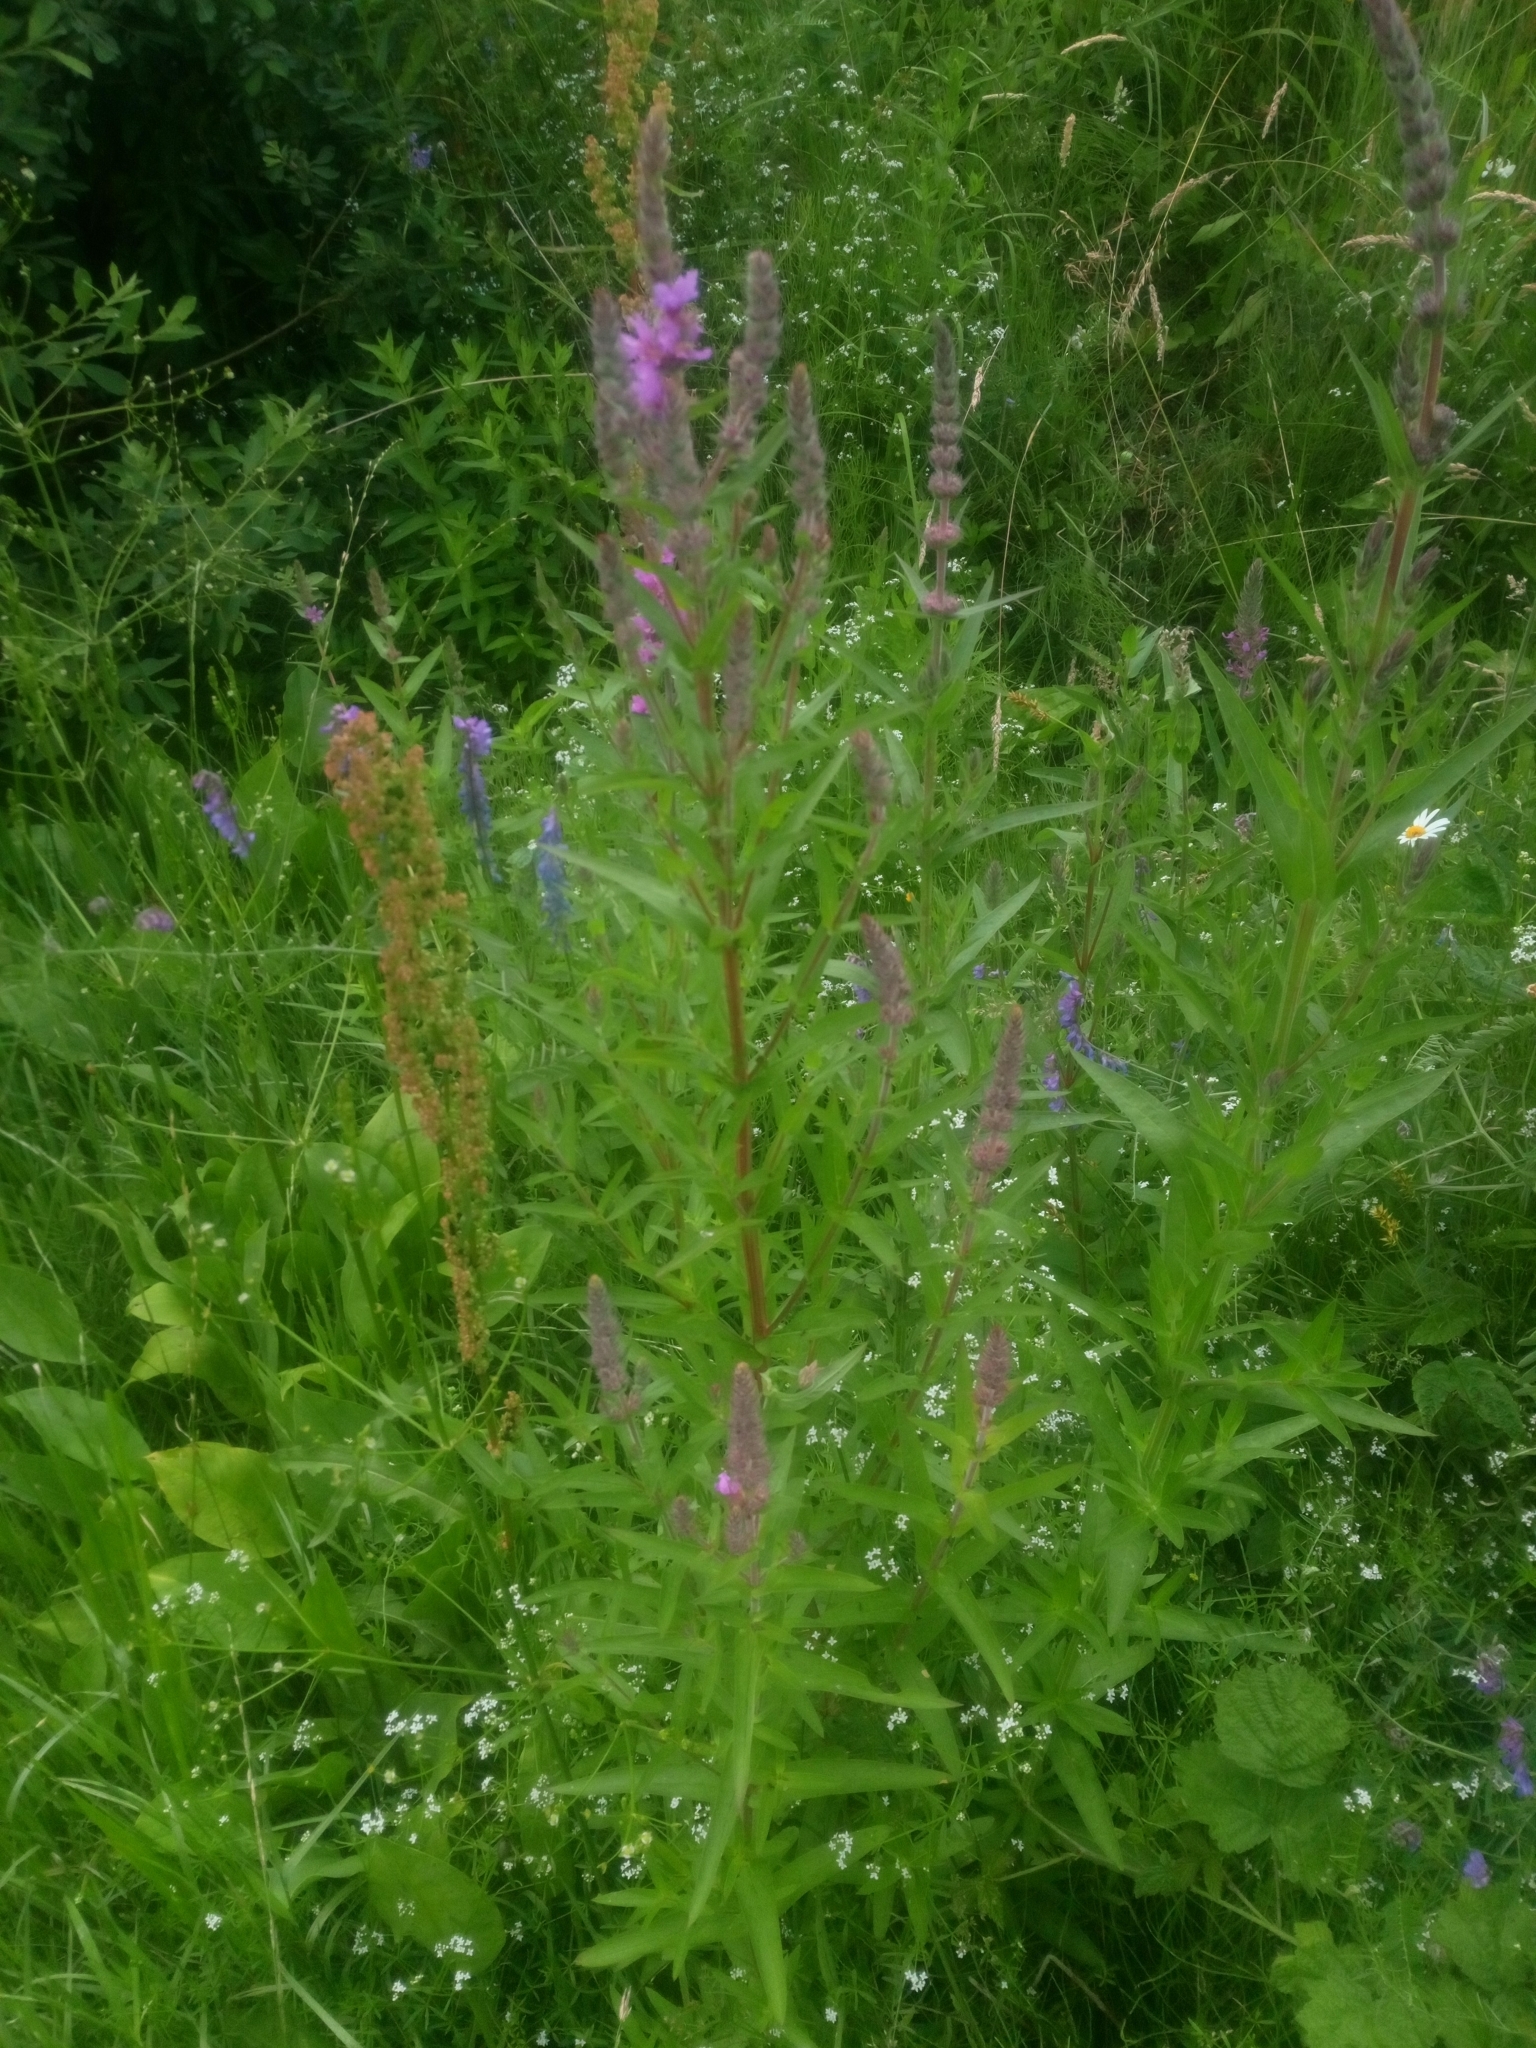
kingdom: Plantae
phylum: Tracheophyta
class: Magnoliopsida
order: Myrtales
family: Lythraceae
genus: Lythrum
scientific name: Lythrum salicaria
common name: Purple loosestrife
